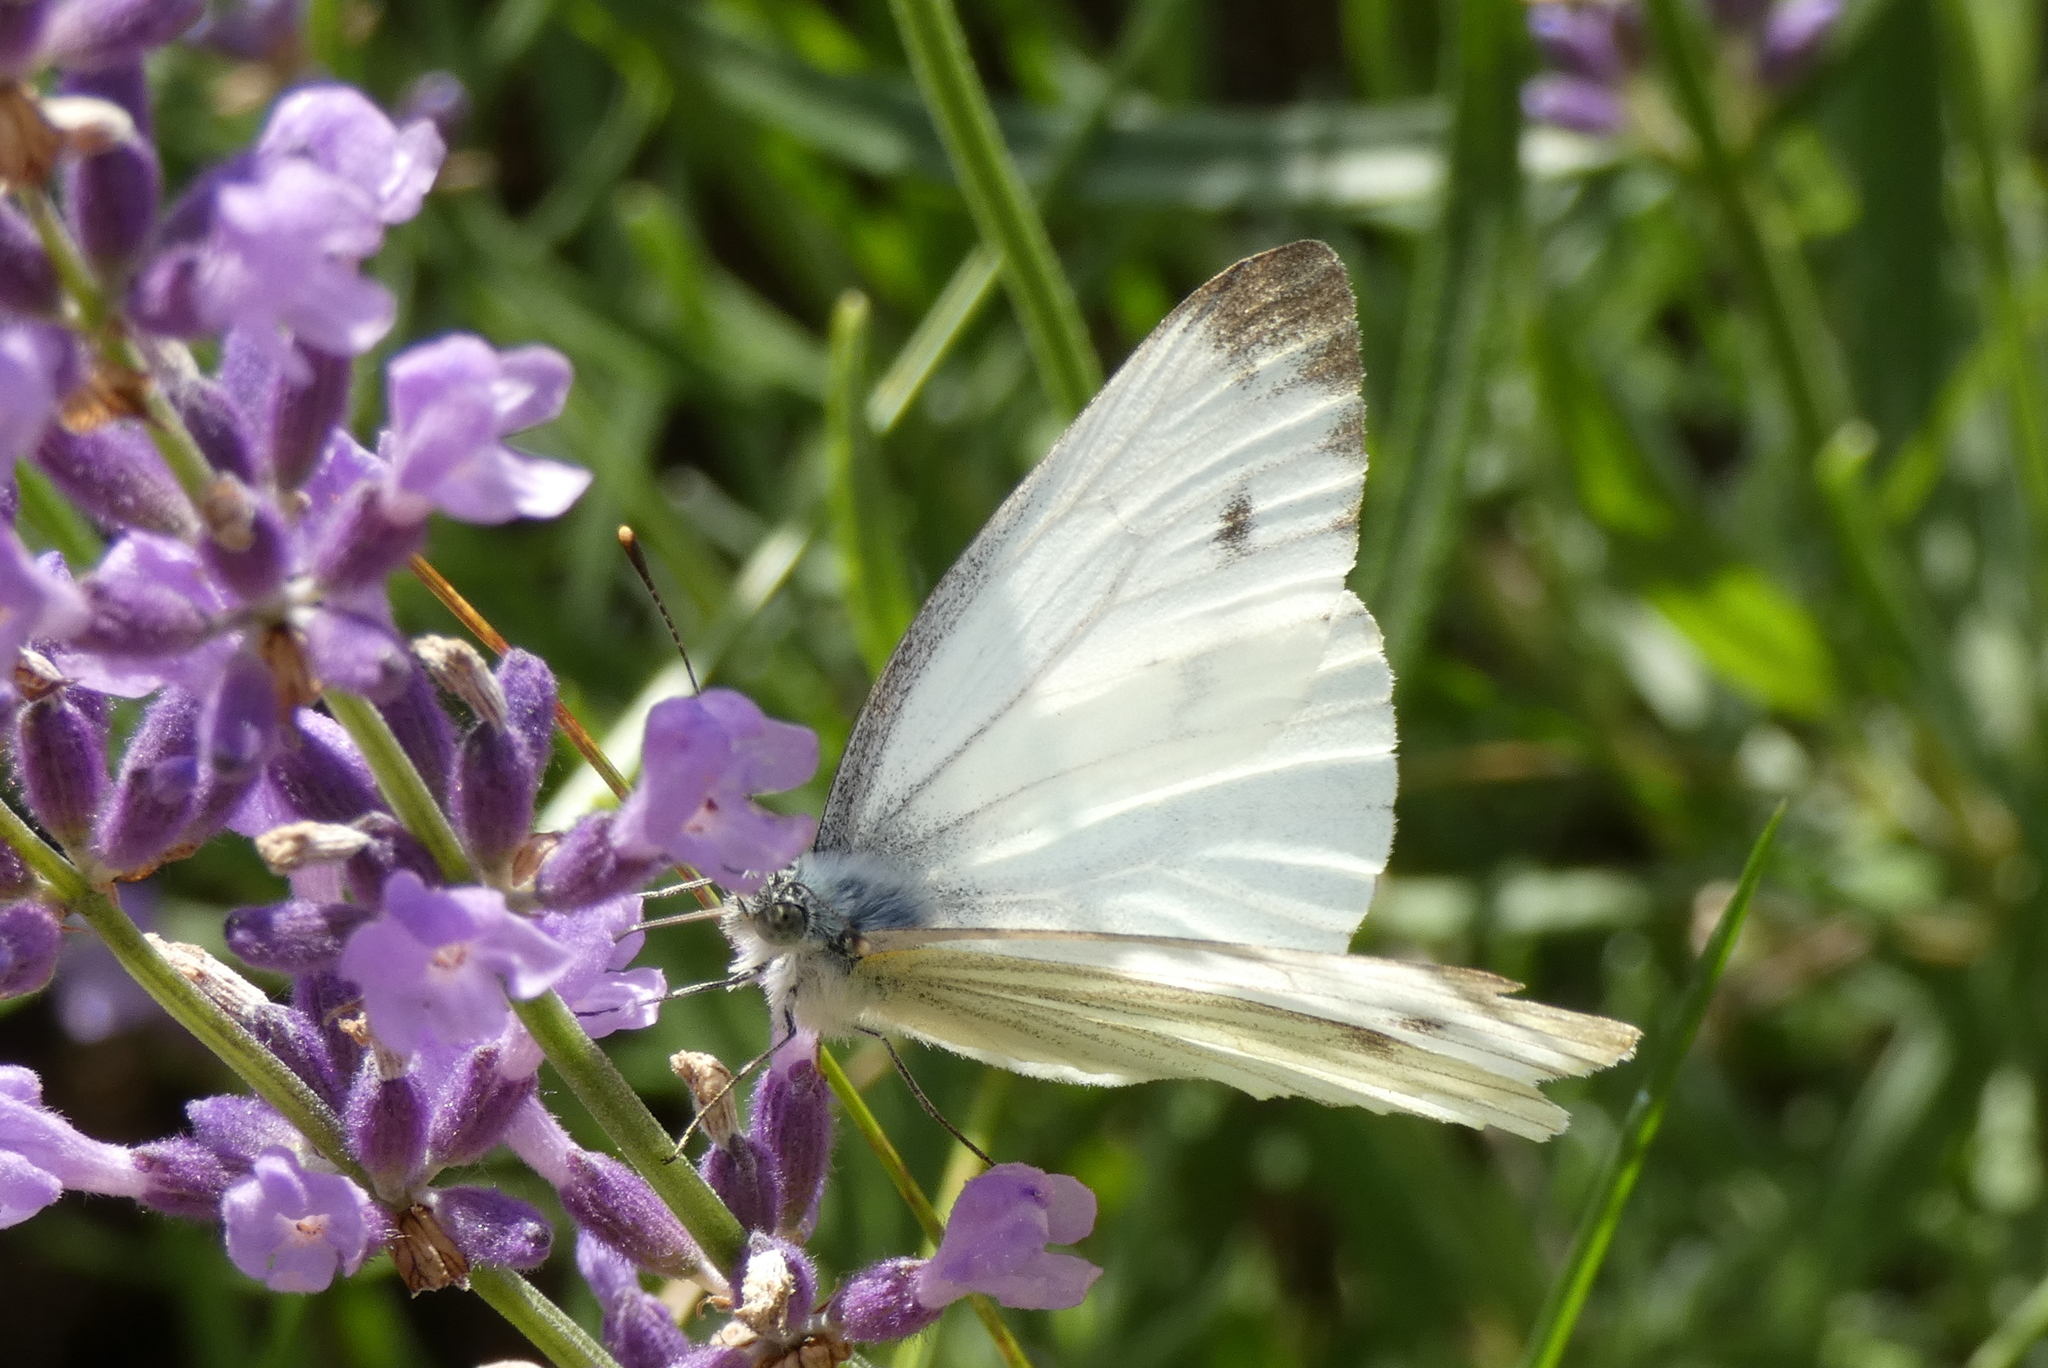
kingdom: Animalia
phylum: Arthropoda
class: Insecta
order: Lepidoptera
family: Pieridae
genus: Pieris
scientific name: Pieris napi
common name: Green-veined white
